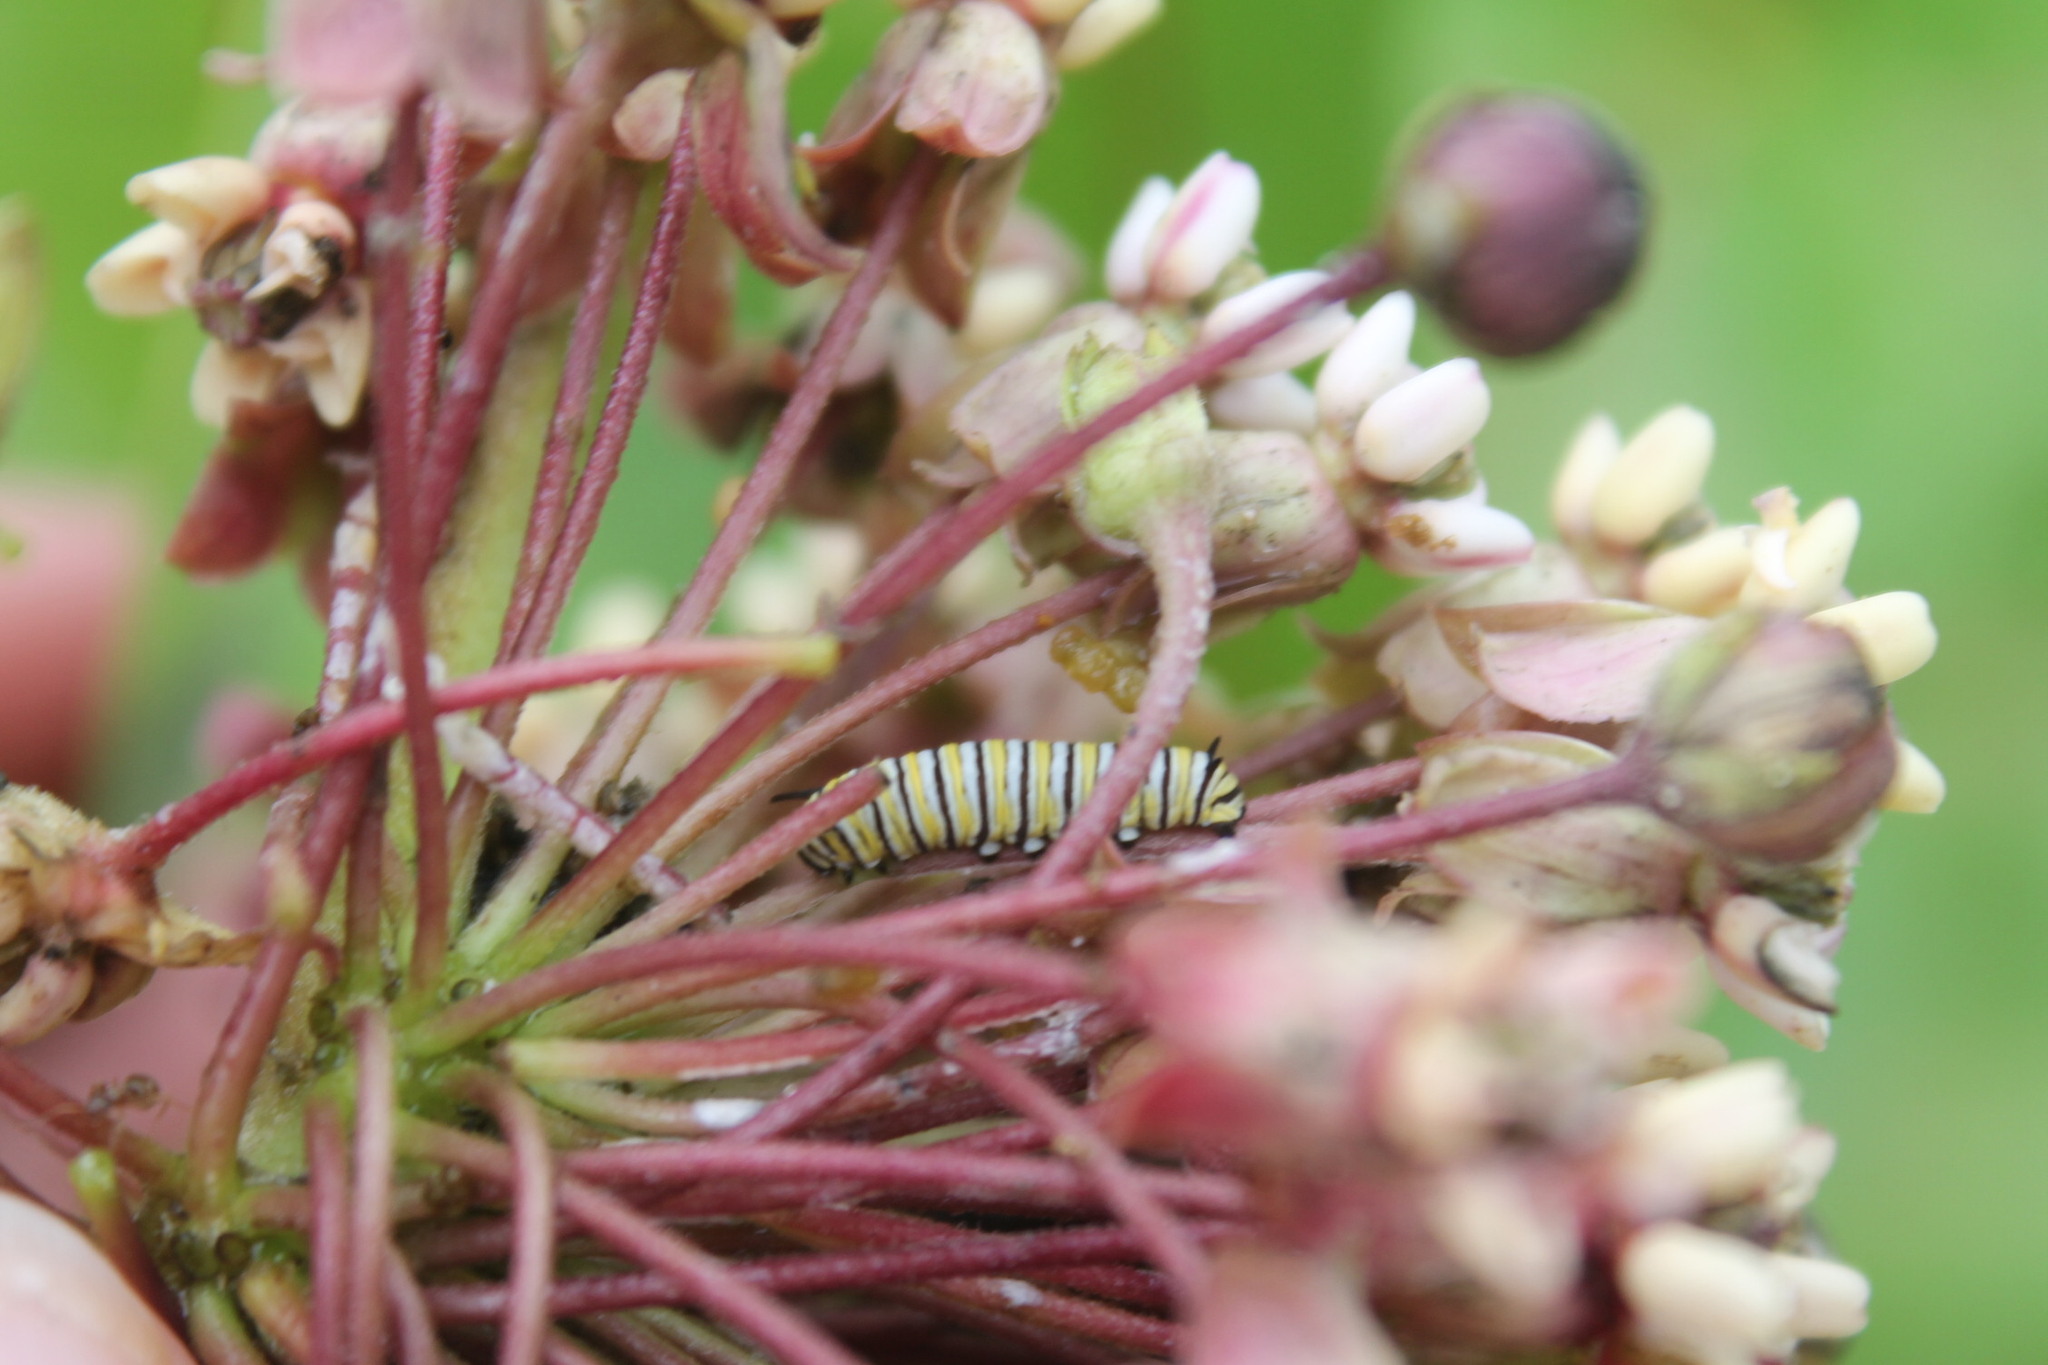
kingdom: Animalia
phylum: Arthropoda
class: Insecta
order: Lepidoptera
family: Nymphalidae
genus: Danaus
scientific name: Danaus plexippus
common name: Monarch
